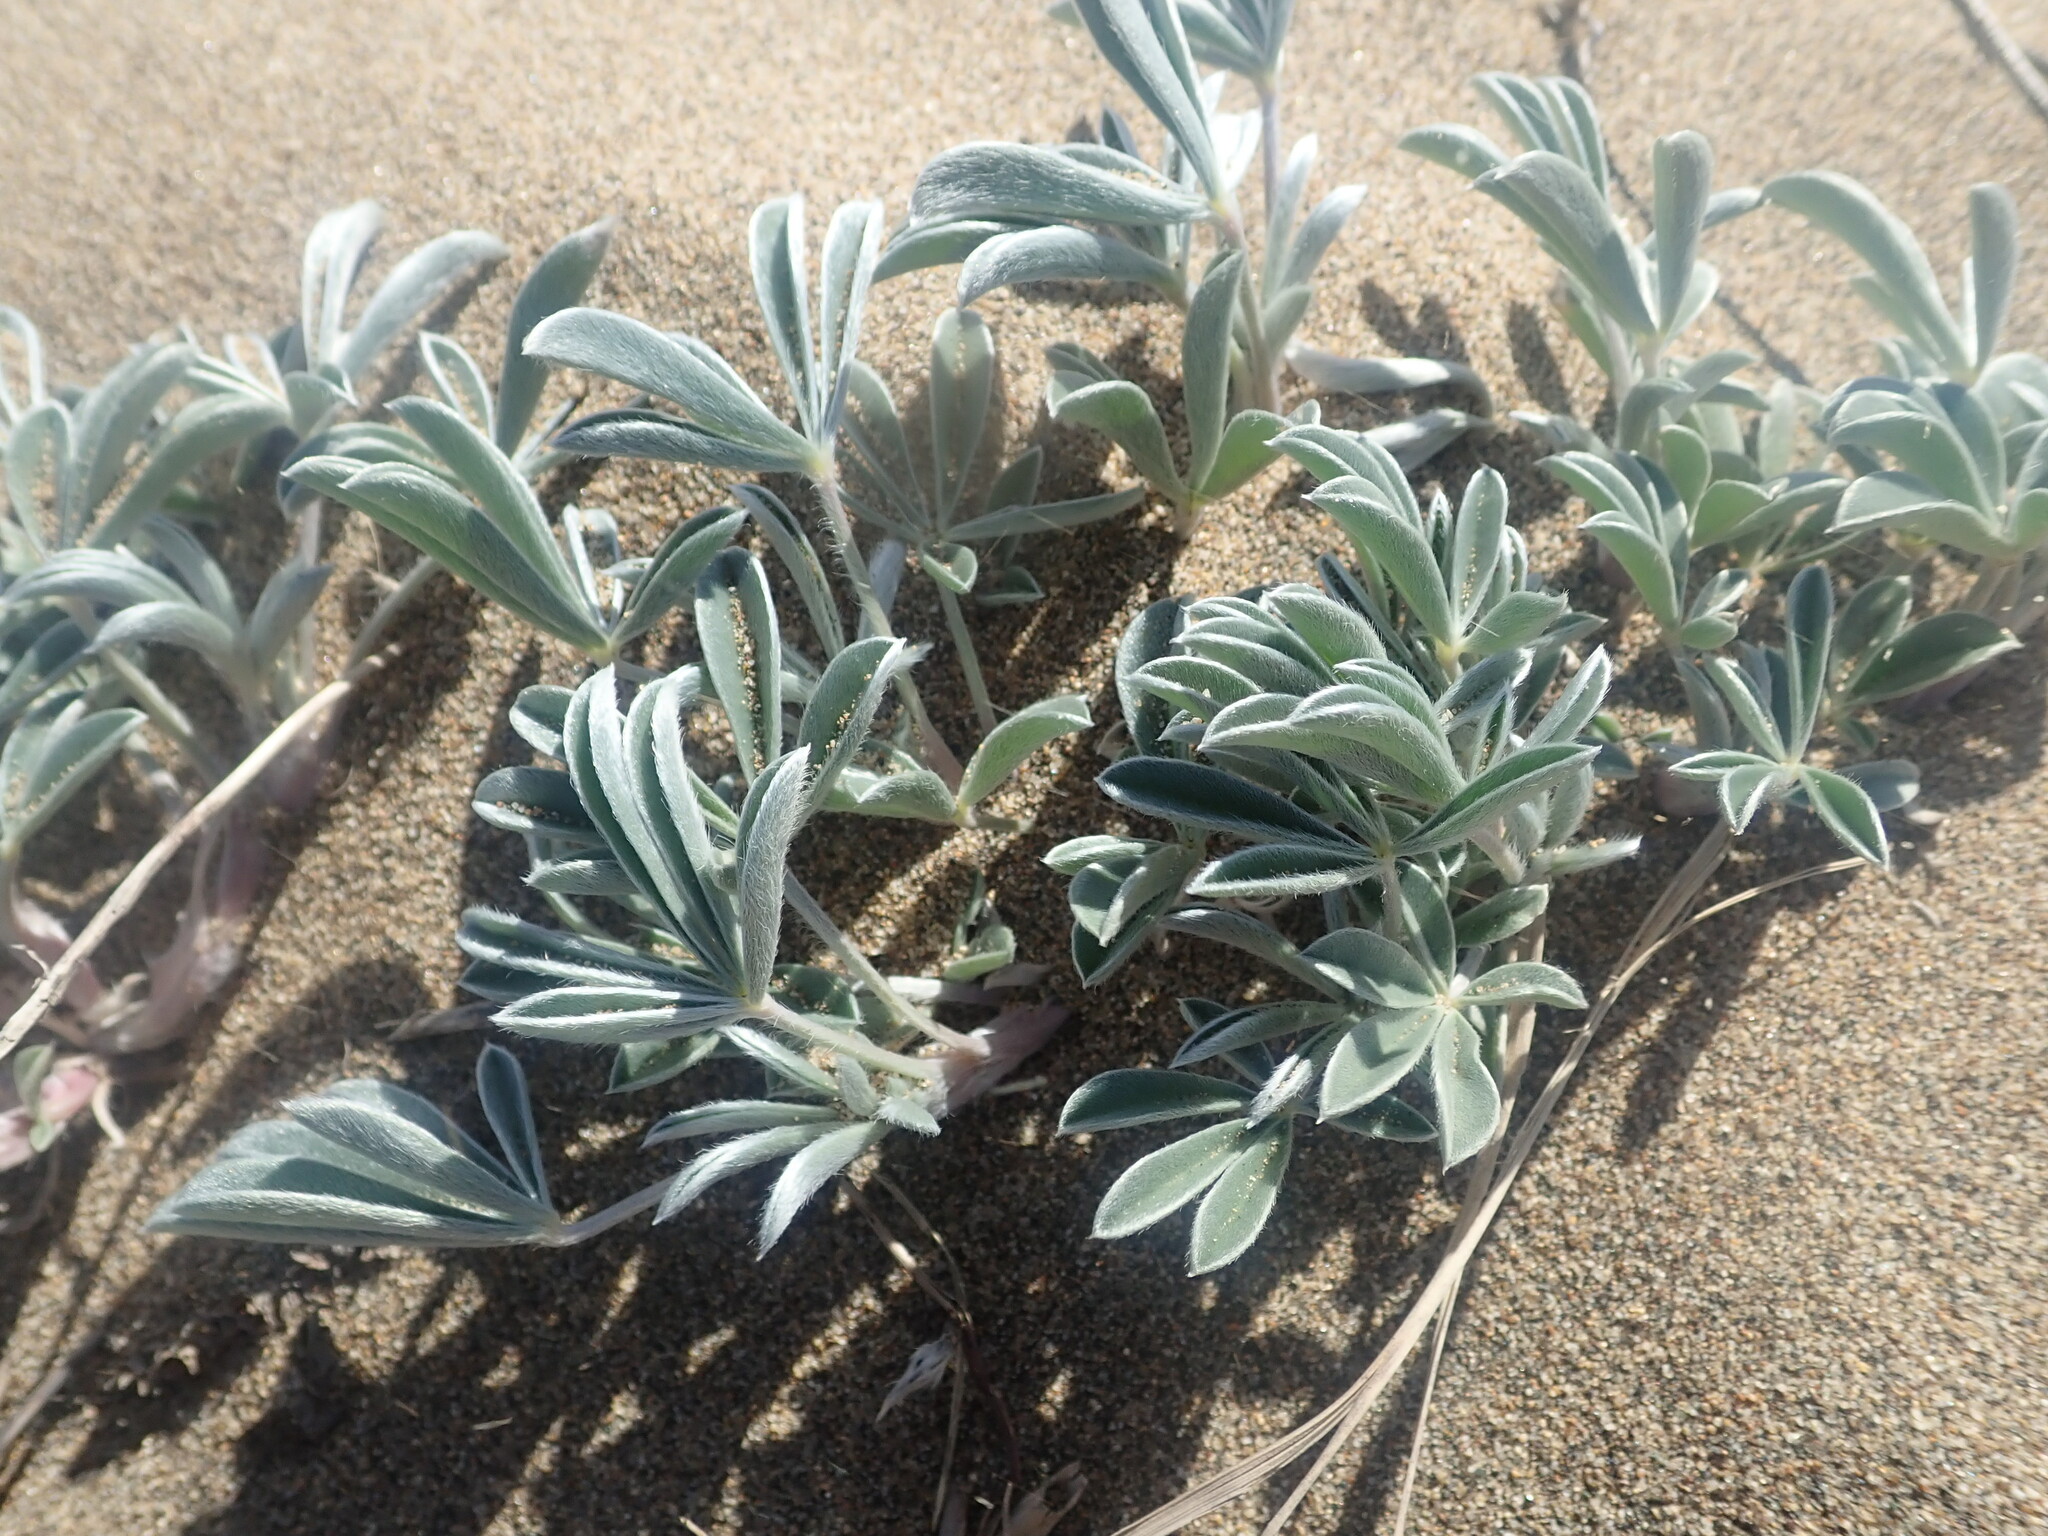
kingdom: Plantae
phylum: Tracheophyta
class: Magnoliopsida
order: Fabales
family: Fabaceae
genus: Lupinus
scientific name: Lupinus tidestromii
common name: Clover lupine
